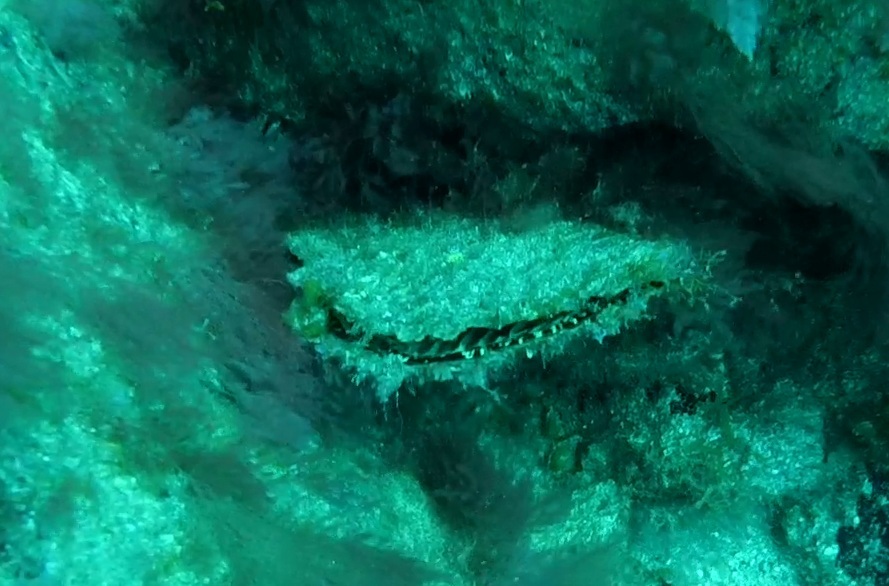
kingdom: Animalia
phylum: Mollusca
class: Bivalvia
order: Ostreida
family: Pinnidae
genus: Pinna
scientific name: Pinna rudis
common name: Rough penshell
